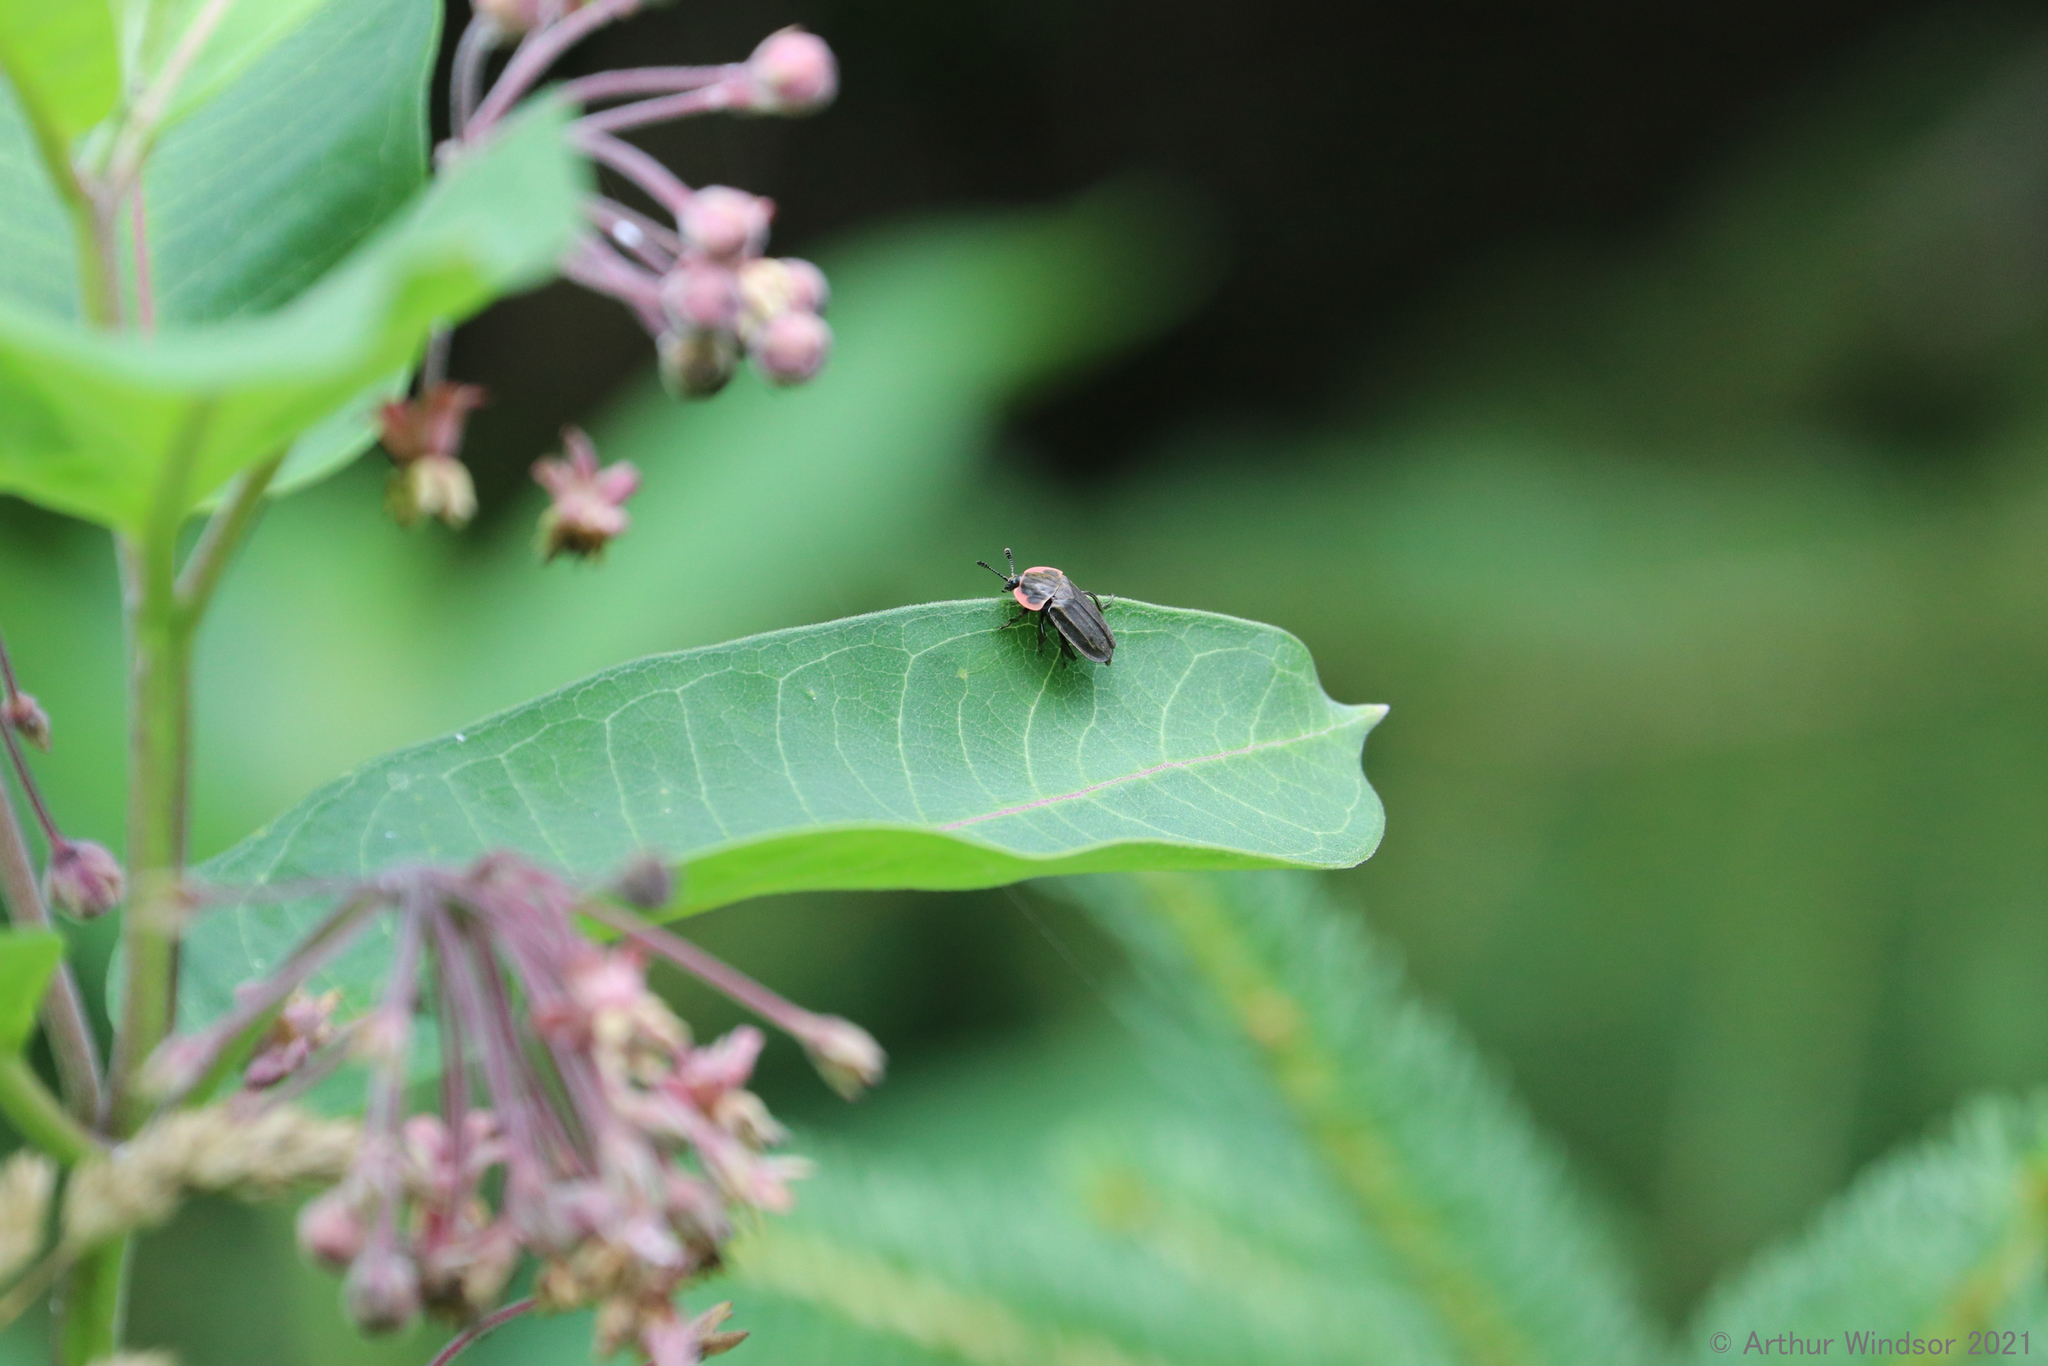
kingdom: Animalia
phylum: Arthropoda
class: Insecta
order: Coleoptera
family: Staphylinidae
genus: Oiceoptoma
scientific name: Oiceoptoma noveboracense
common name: Margined carrion beetle
